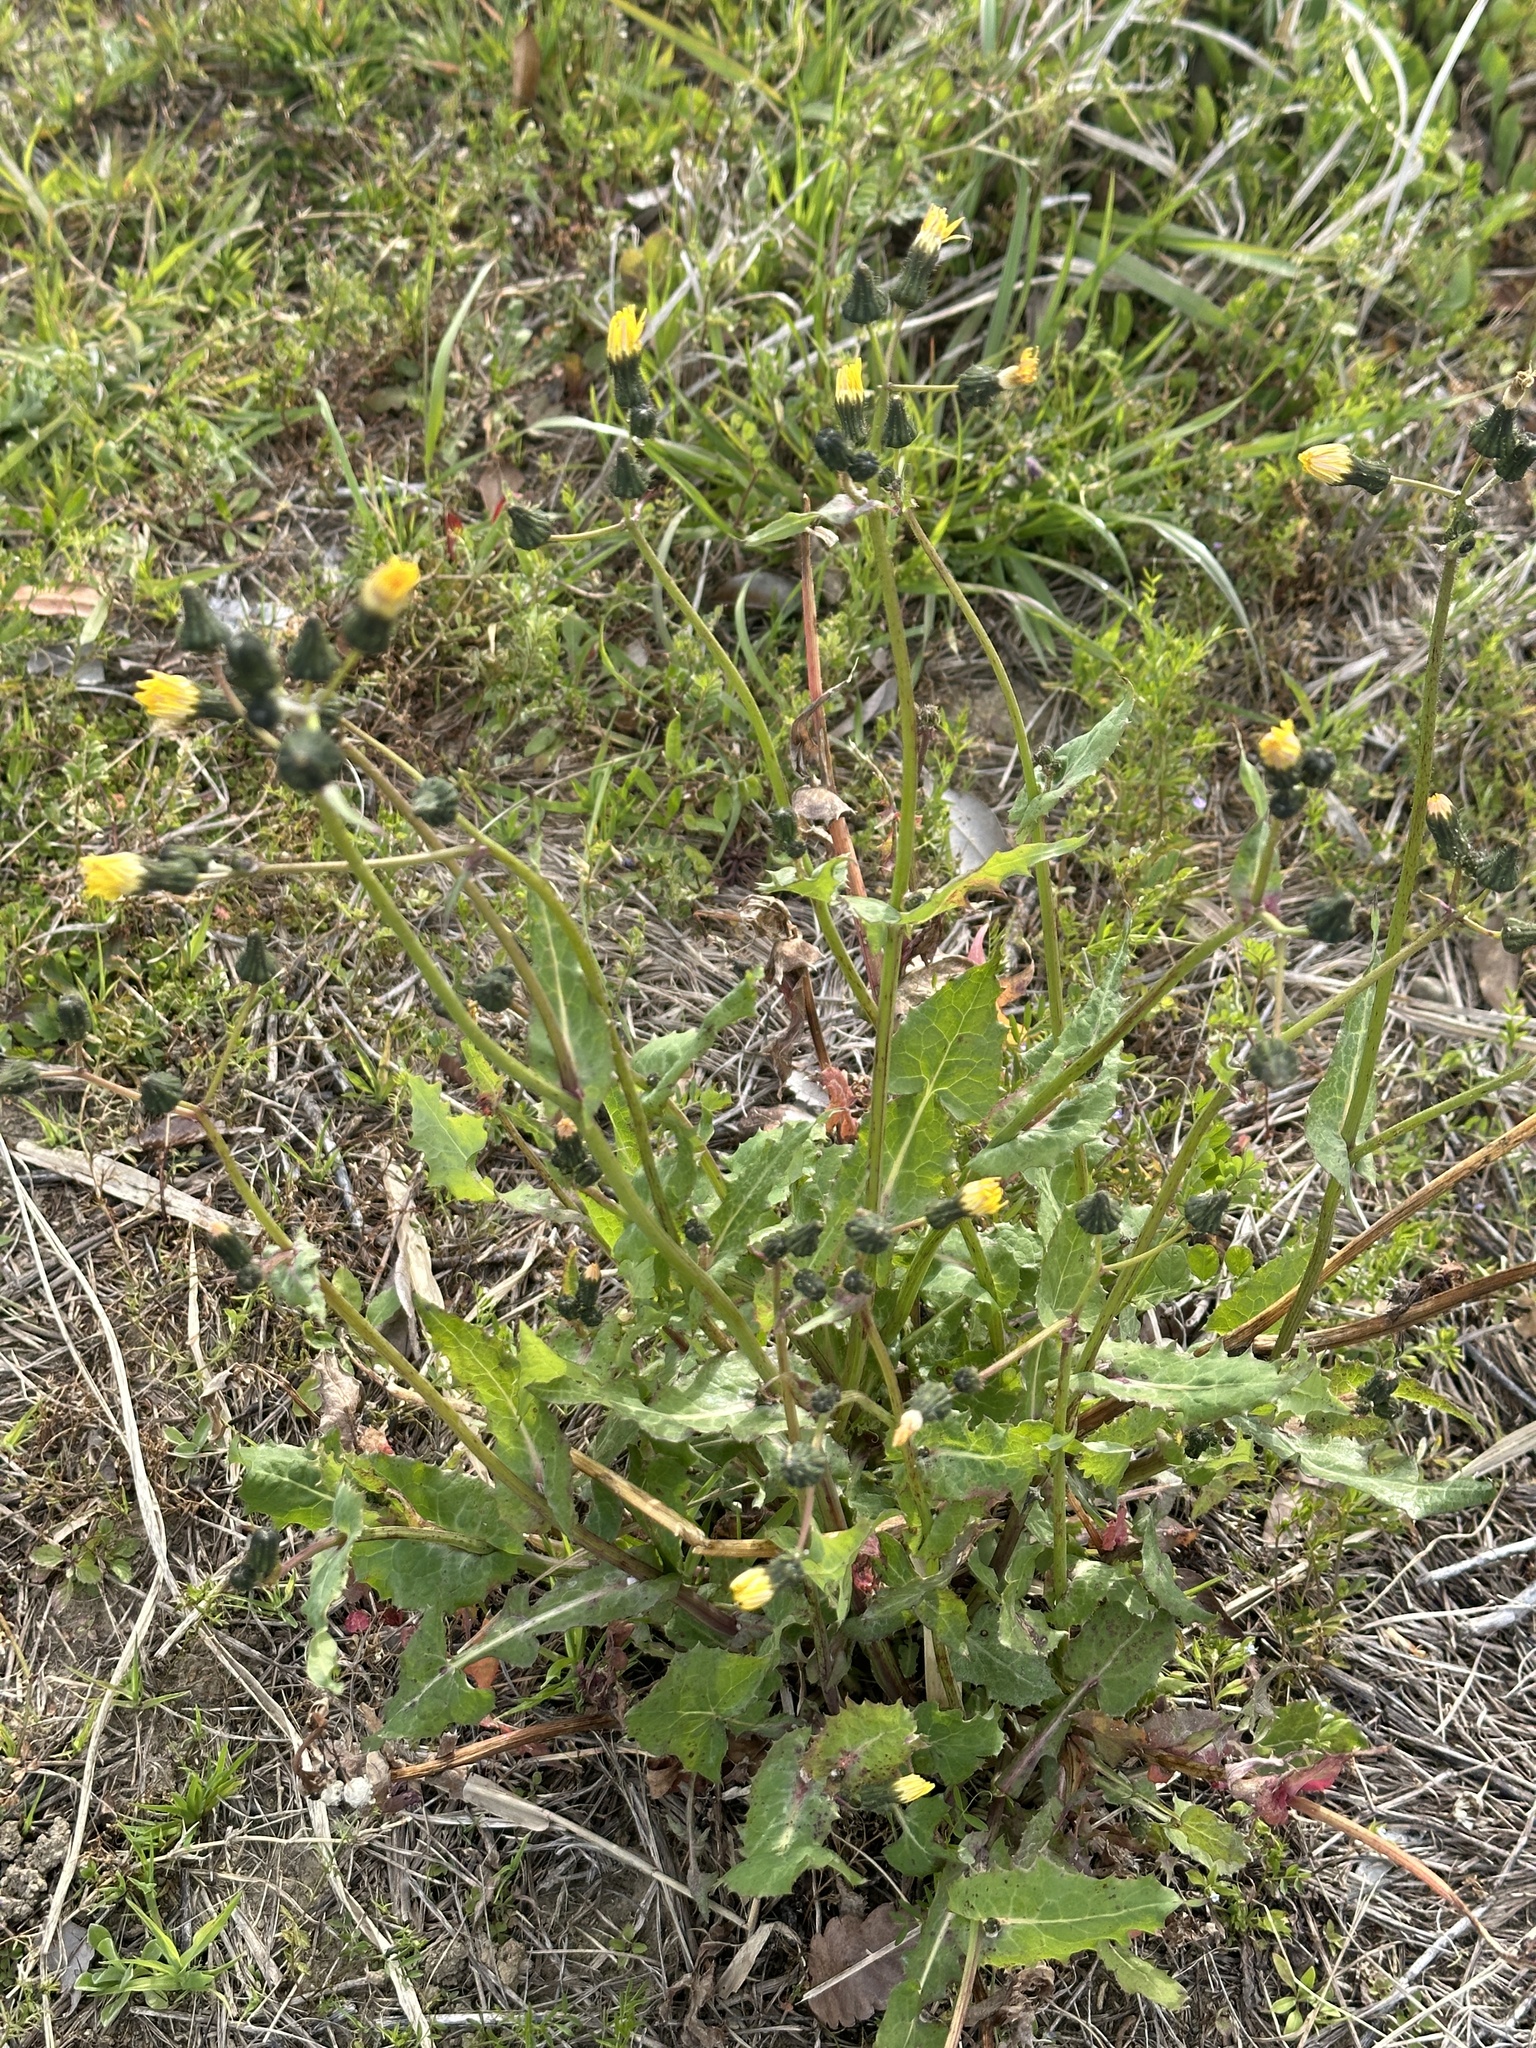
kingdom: Plantae
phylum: Tracheophyta
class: Magnoliopsida
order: Asterales
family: Asteraceae
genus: Sonchus
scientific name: Sonchus oleraceus
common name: Common sowthistle
